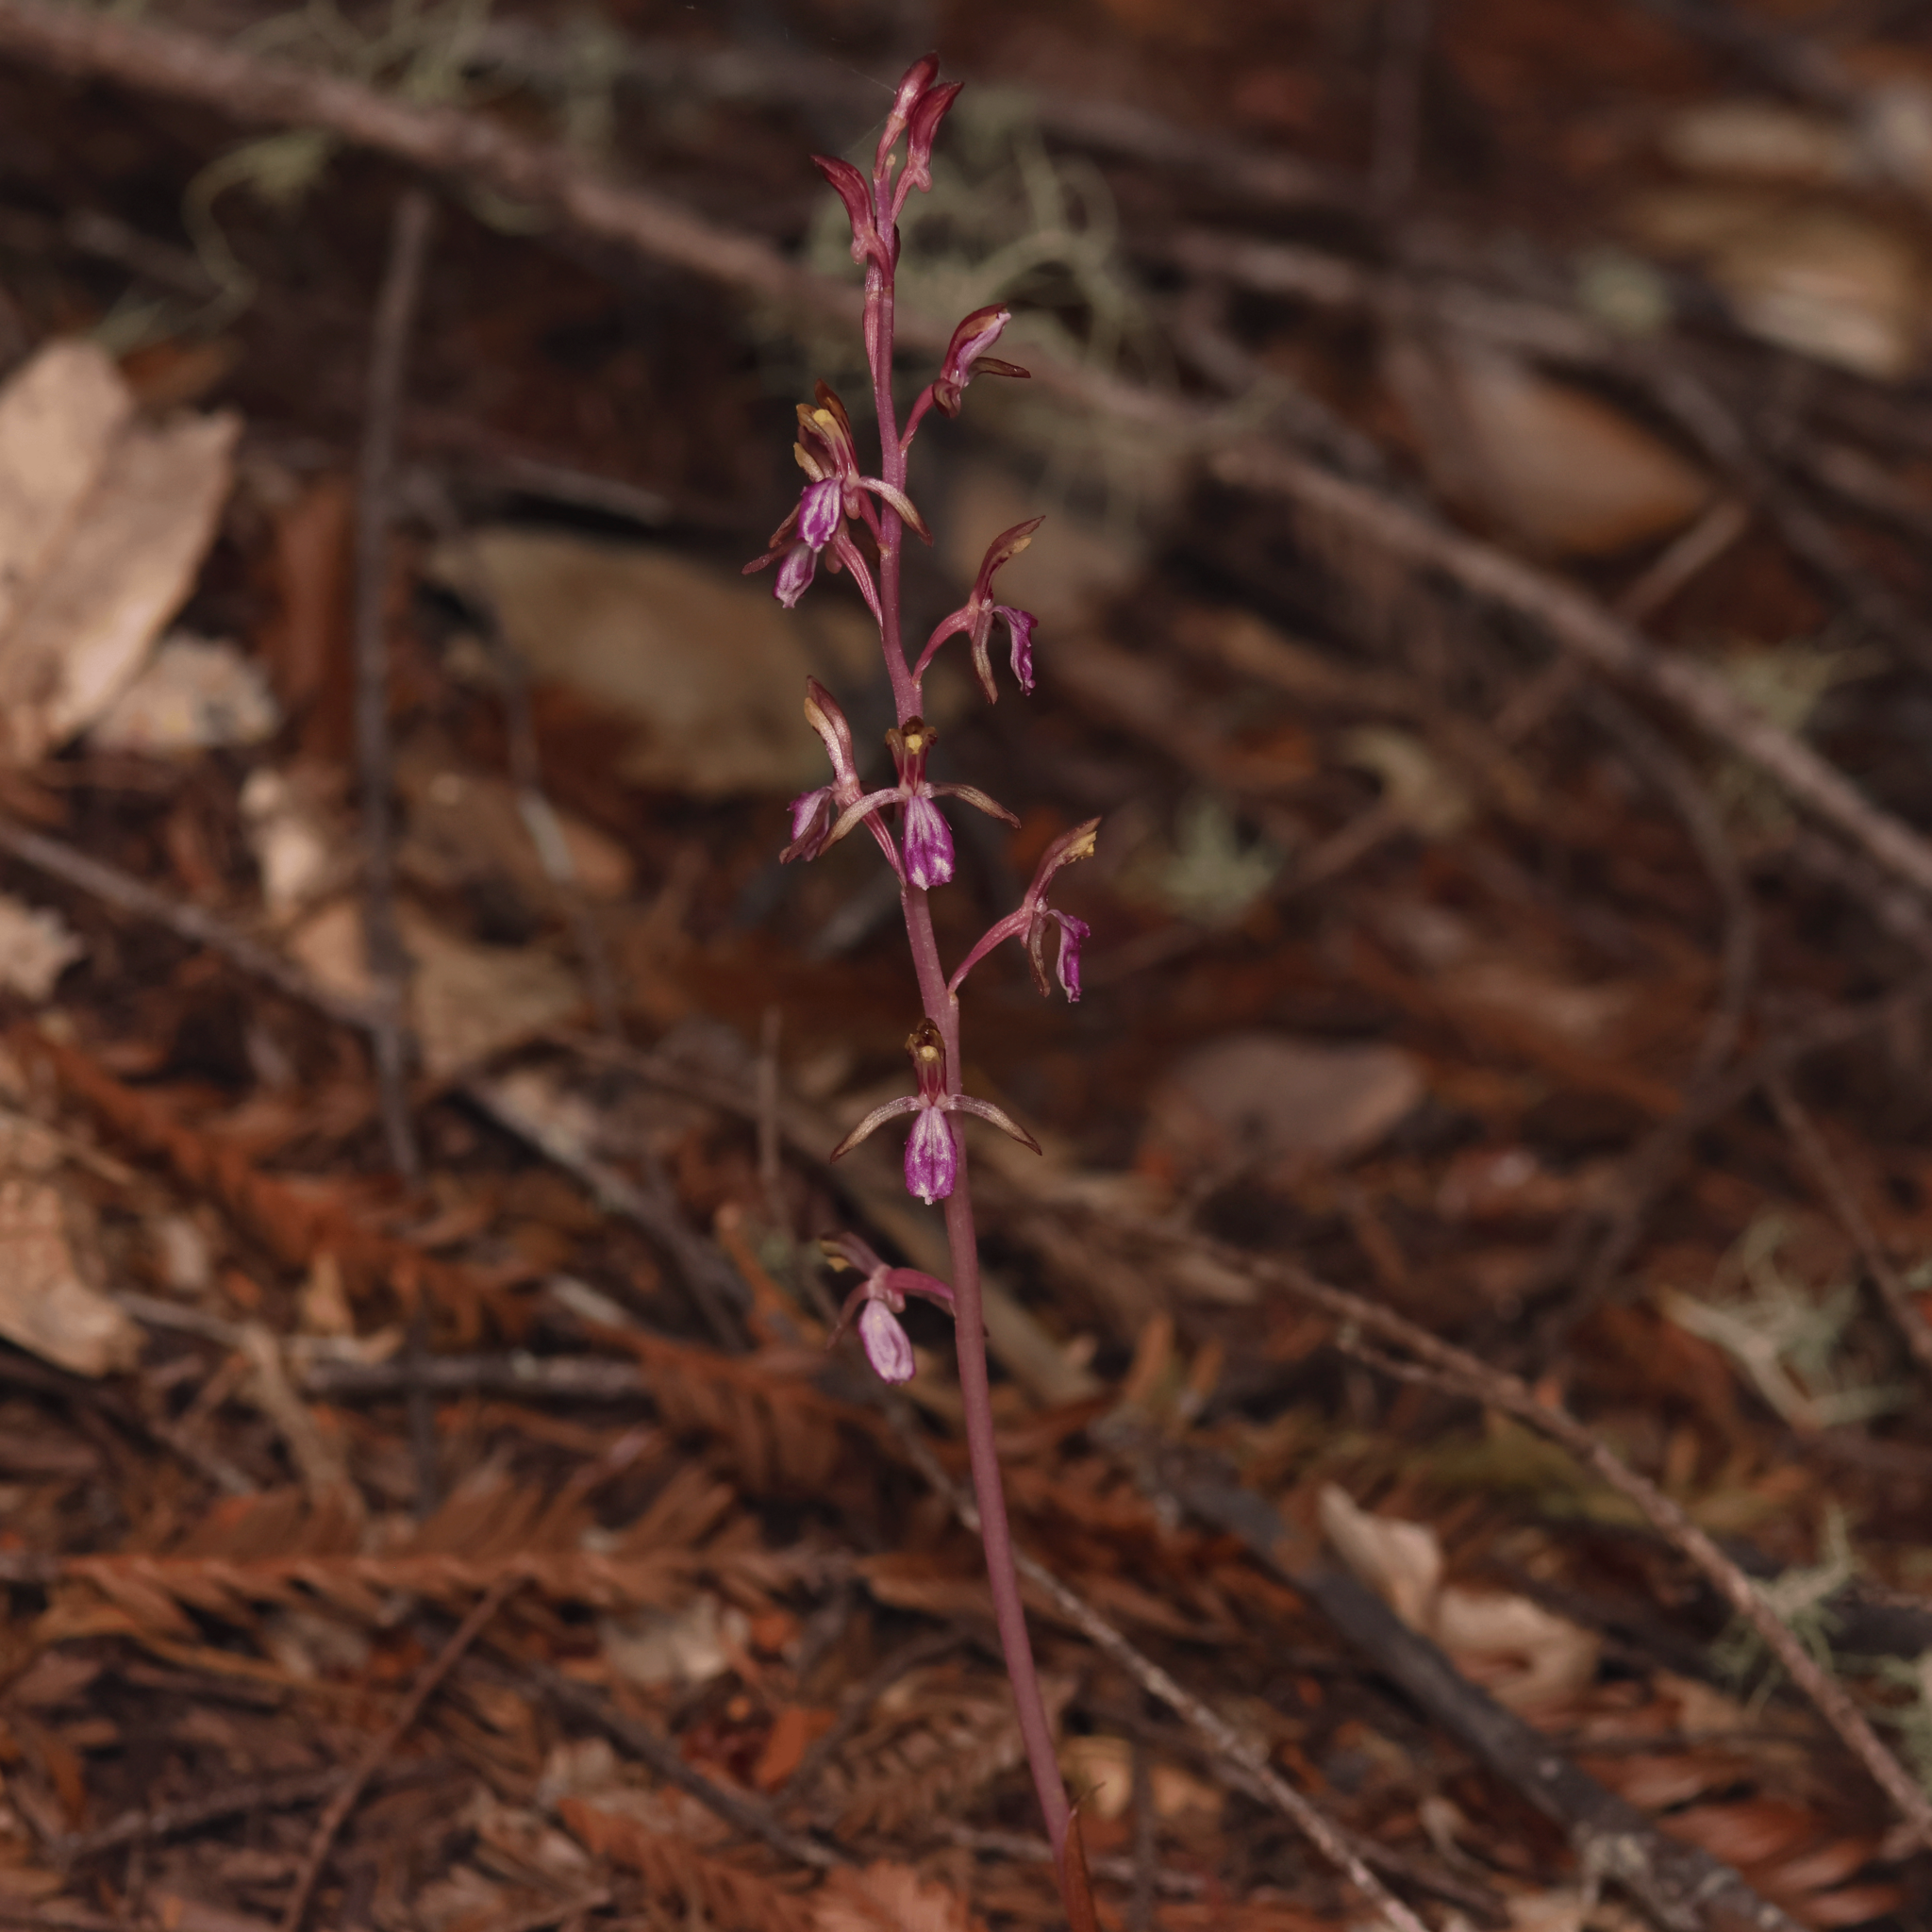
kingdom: Plantae
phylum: Tracheophyta
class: Liliopsida
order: Asparagales
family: Orchidaceae
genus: Corallorhiza
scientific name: Corallorhiza mertensiana
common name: Pacific coralroot
